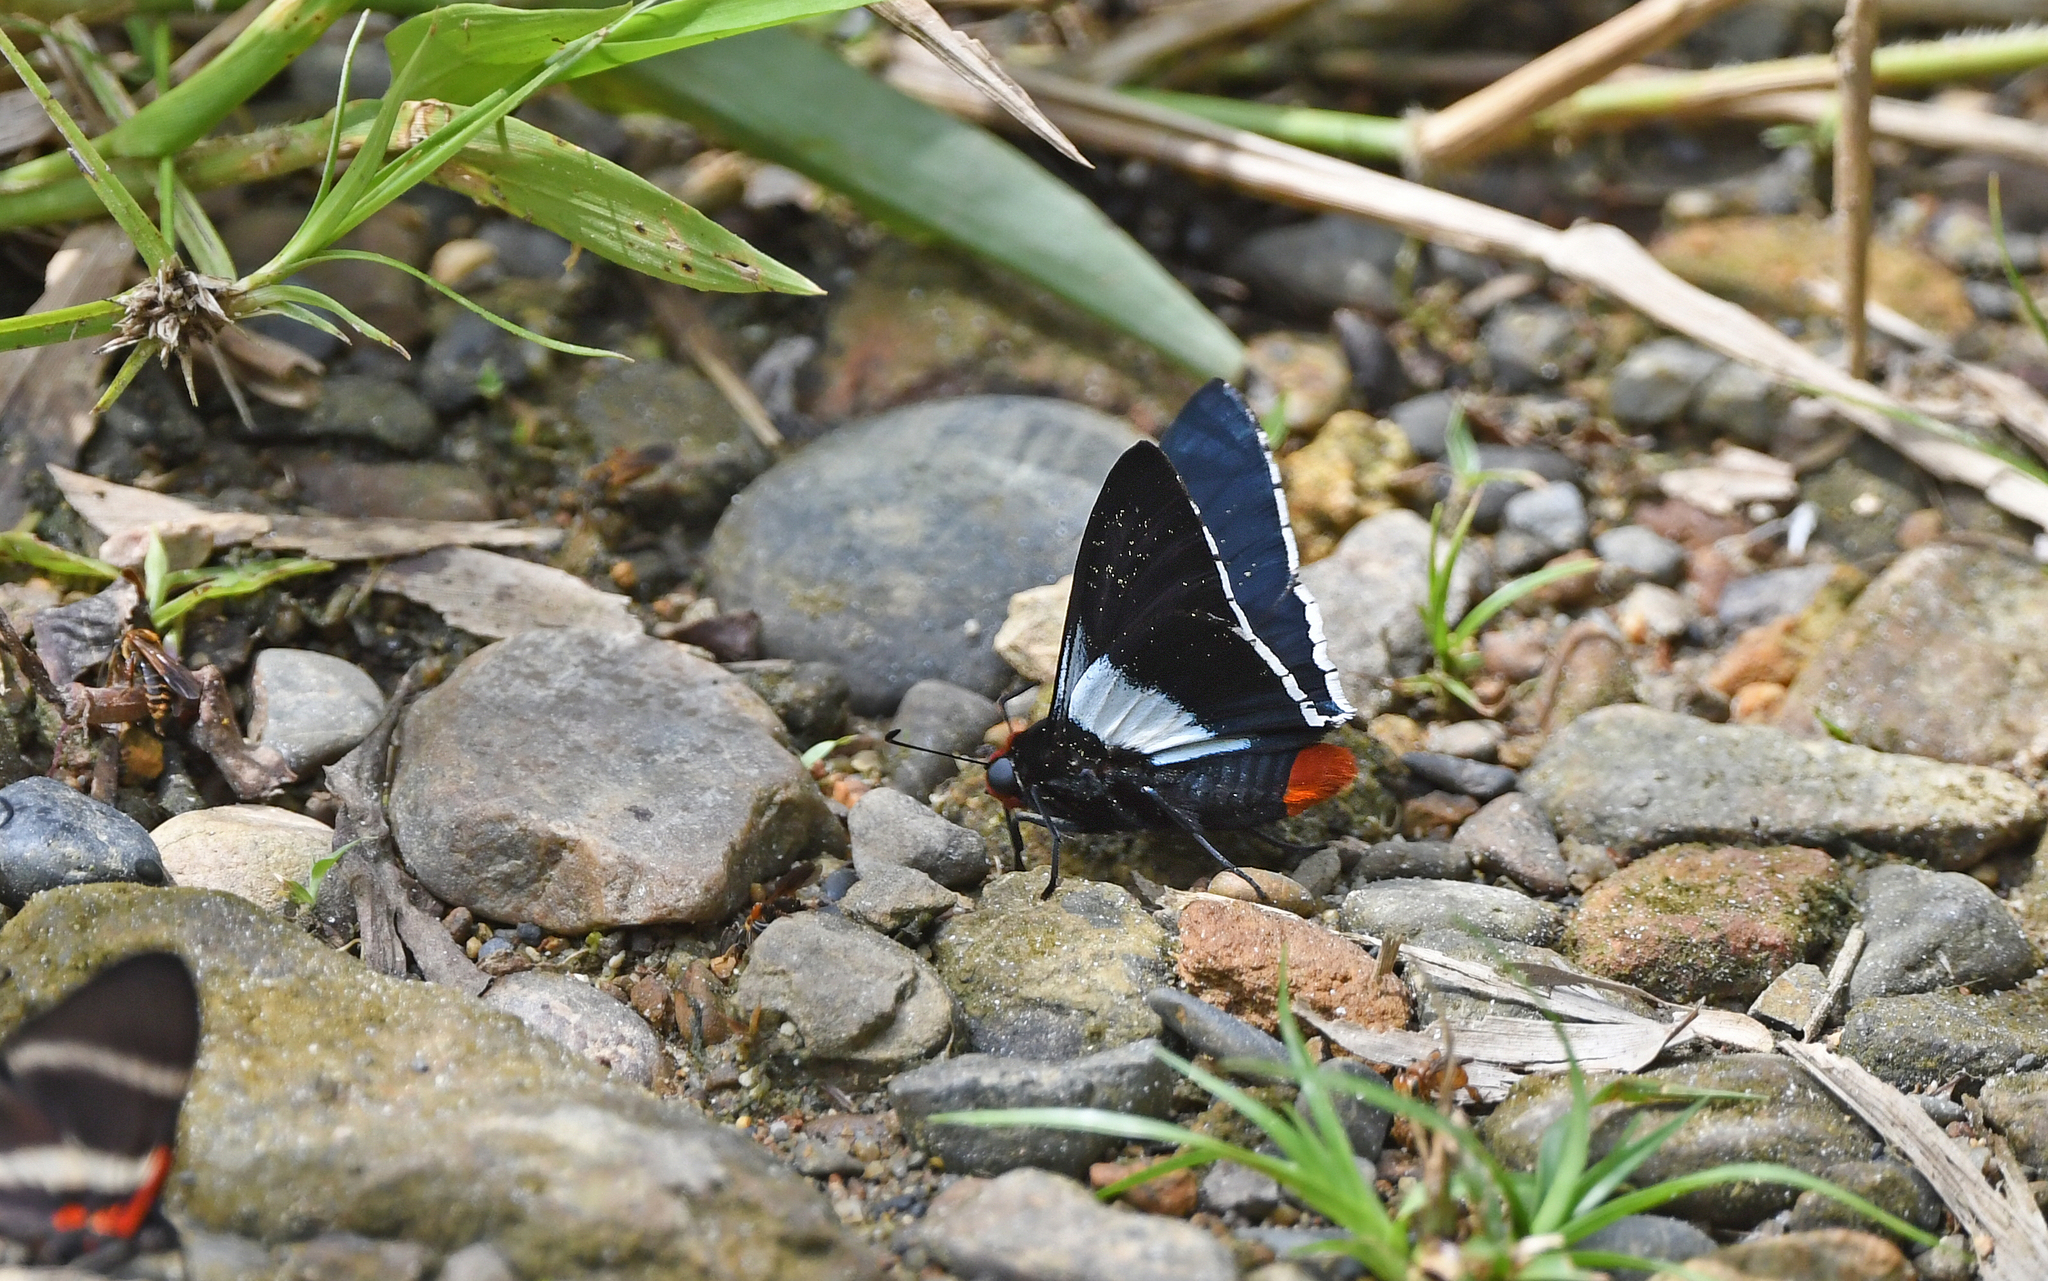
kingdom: Animalia
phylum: Arthropoda
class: Insecta
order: Lepidoptera
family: Hesperiidae
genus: Aspitha
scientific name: Aspitha agenoria
